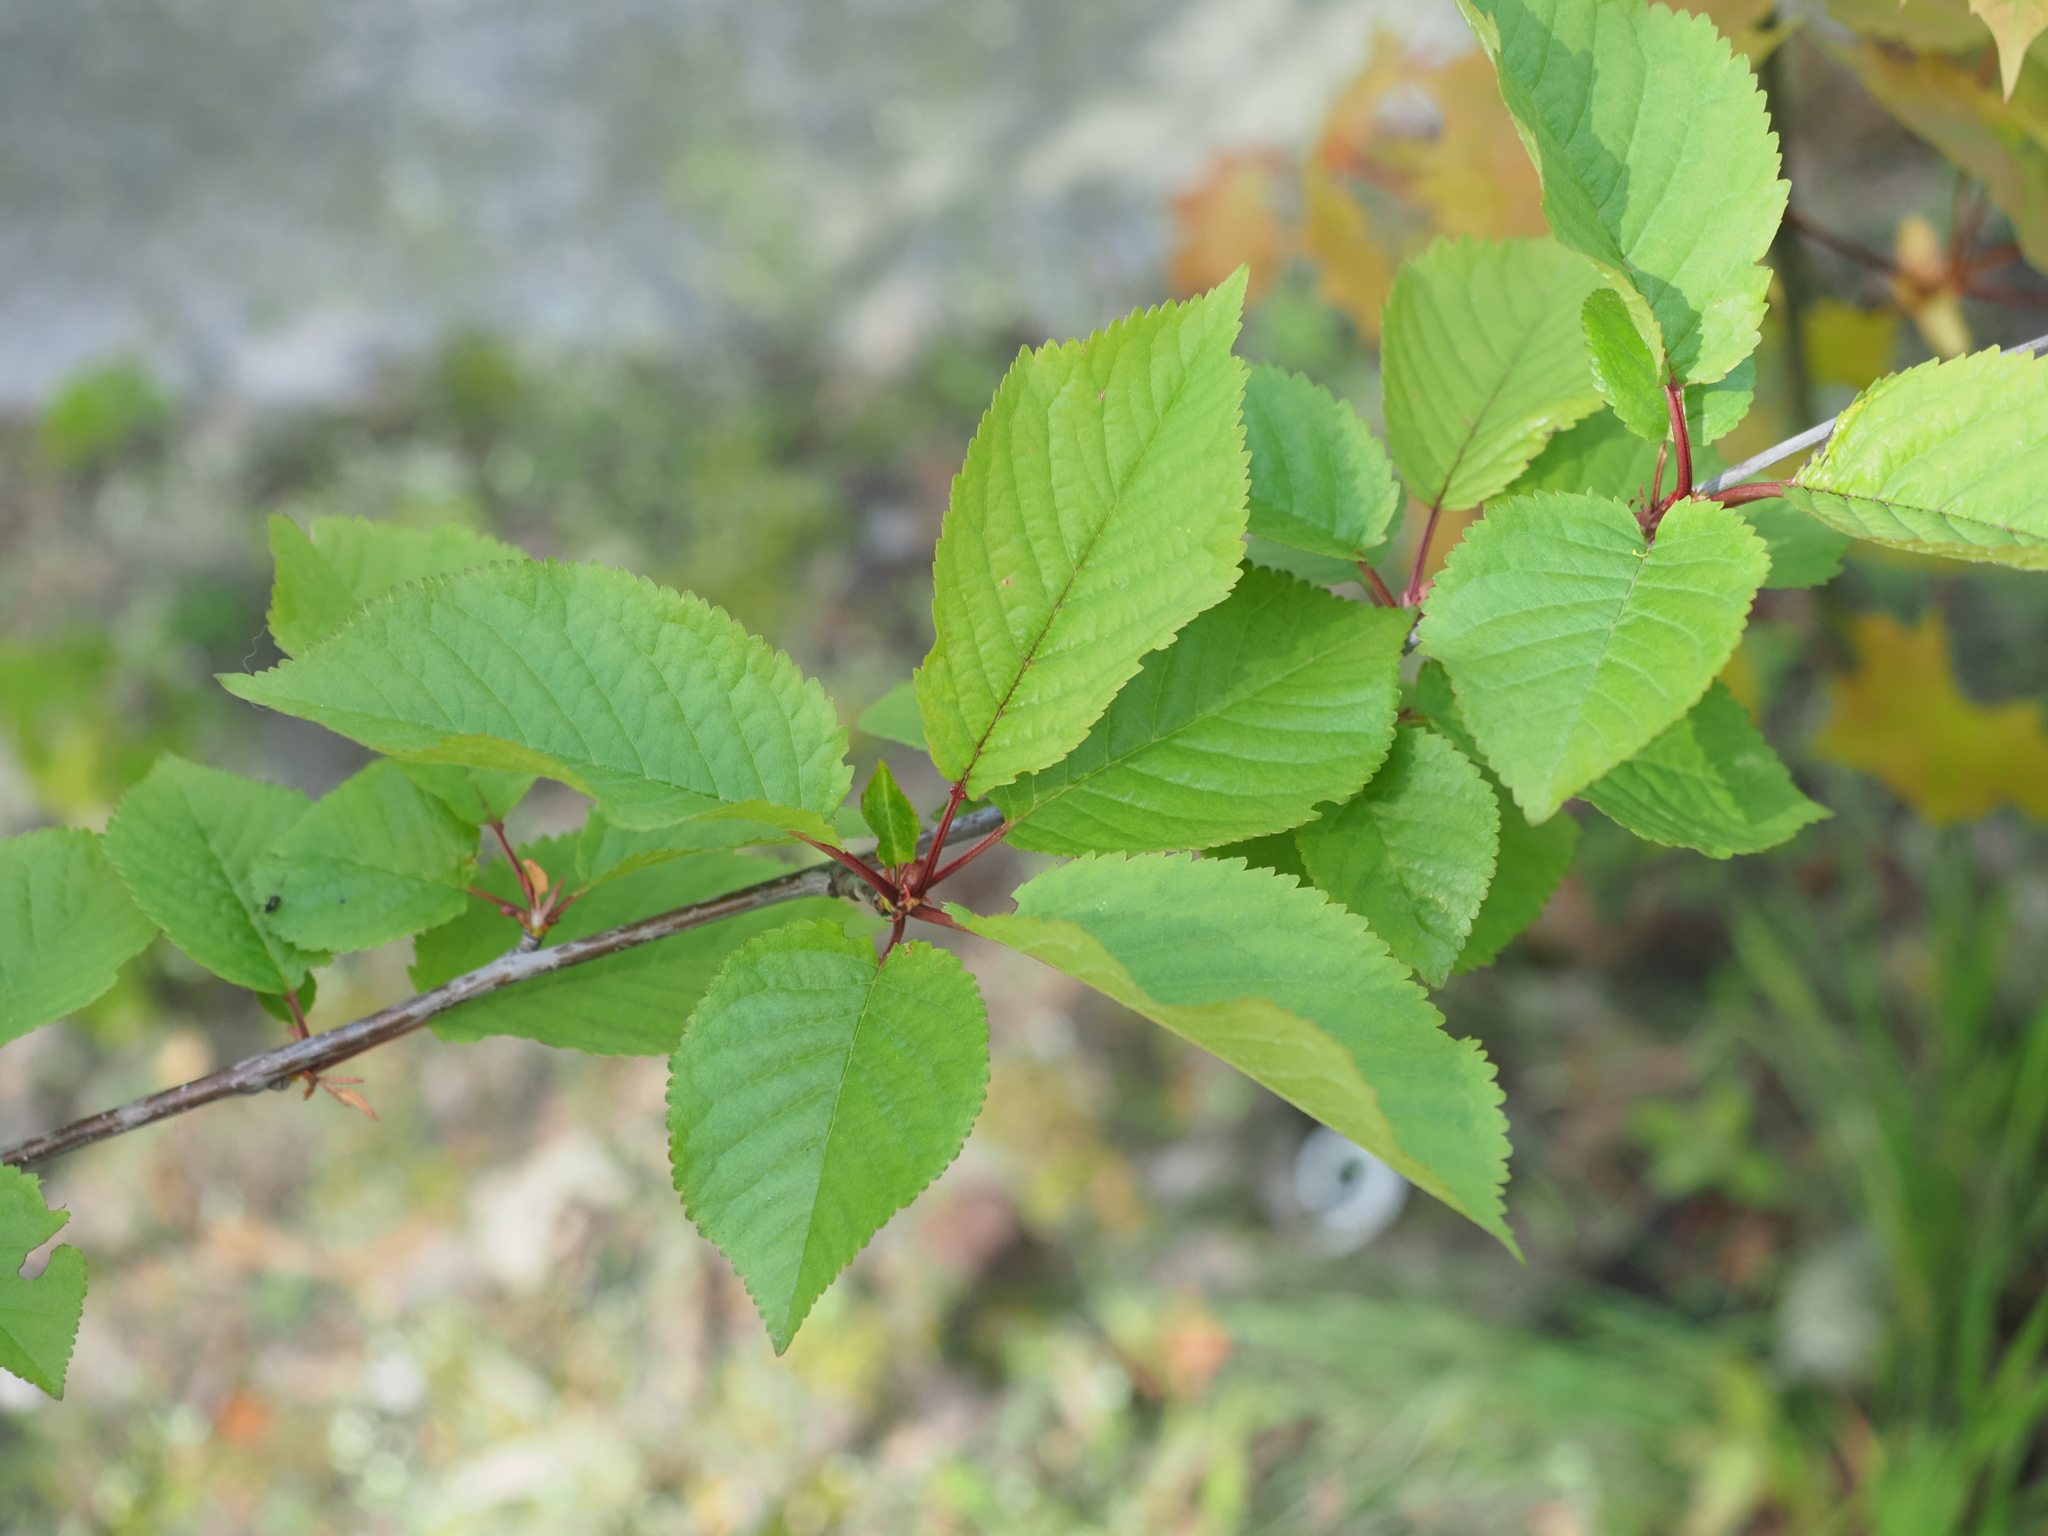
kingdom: Plantae
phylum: Tracheophyta
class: Magnoliopsida
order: Rosales
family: Rosaceae
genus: Prunus
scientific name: Prunus avium
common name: Sweet cherry
